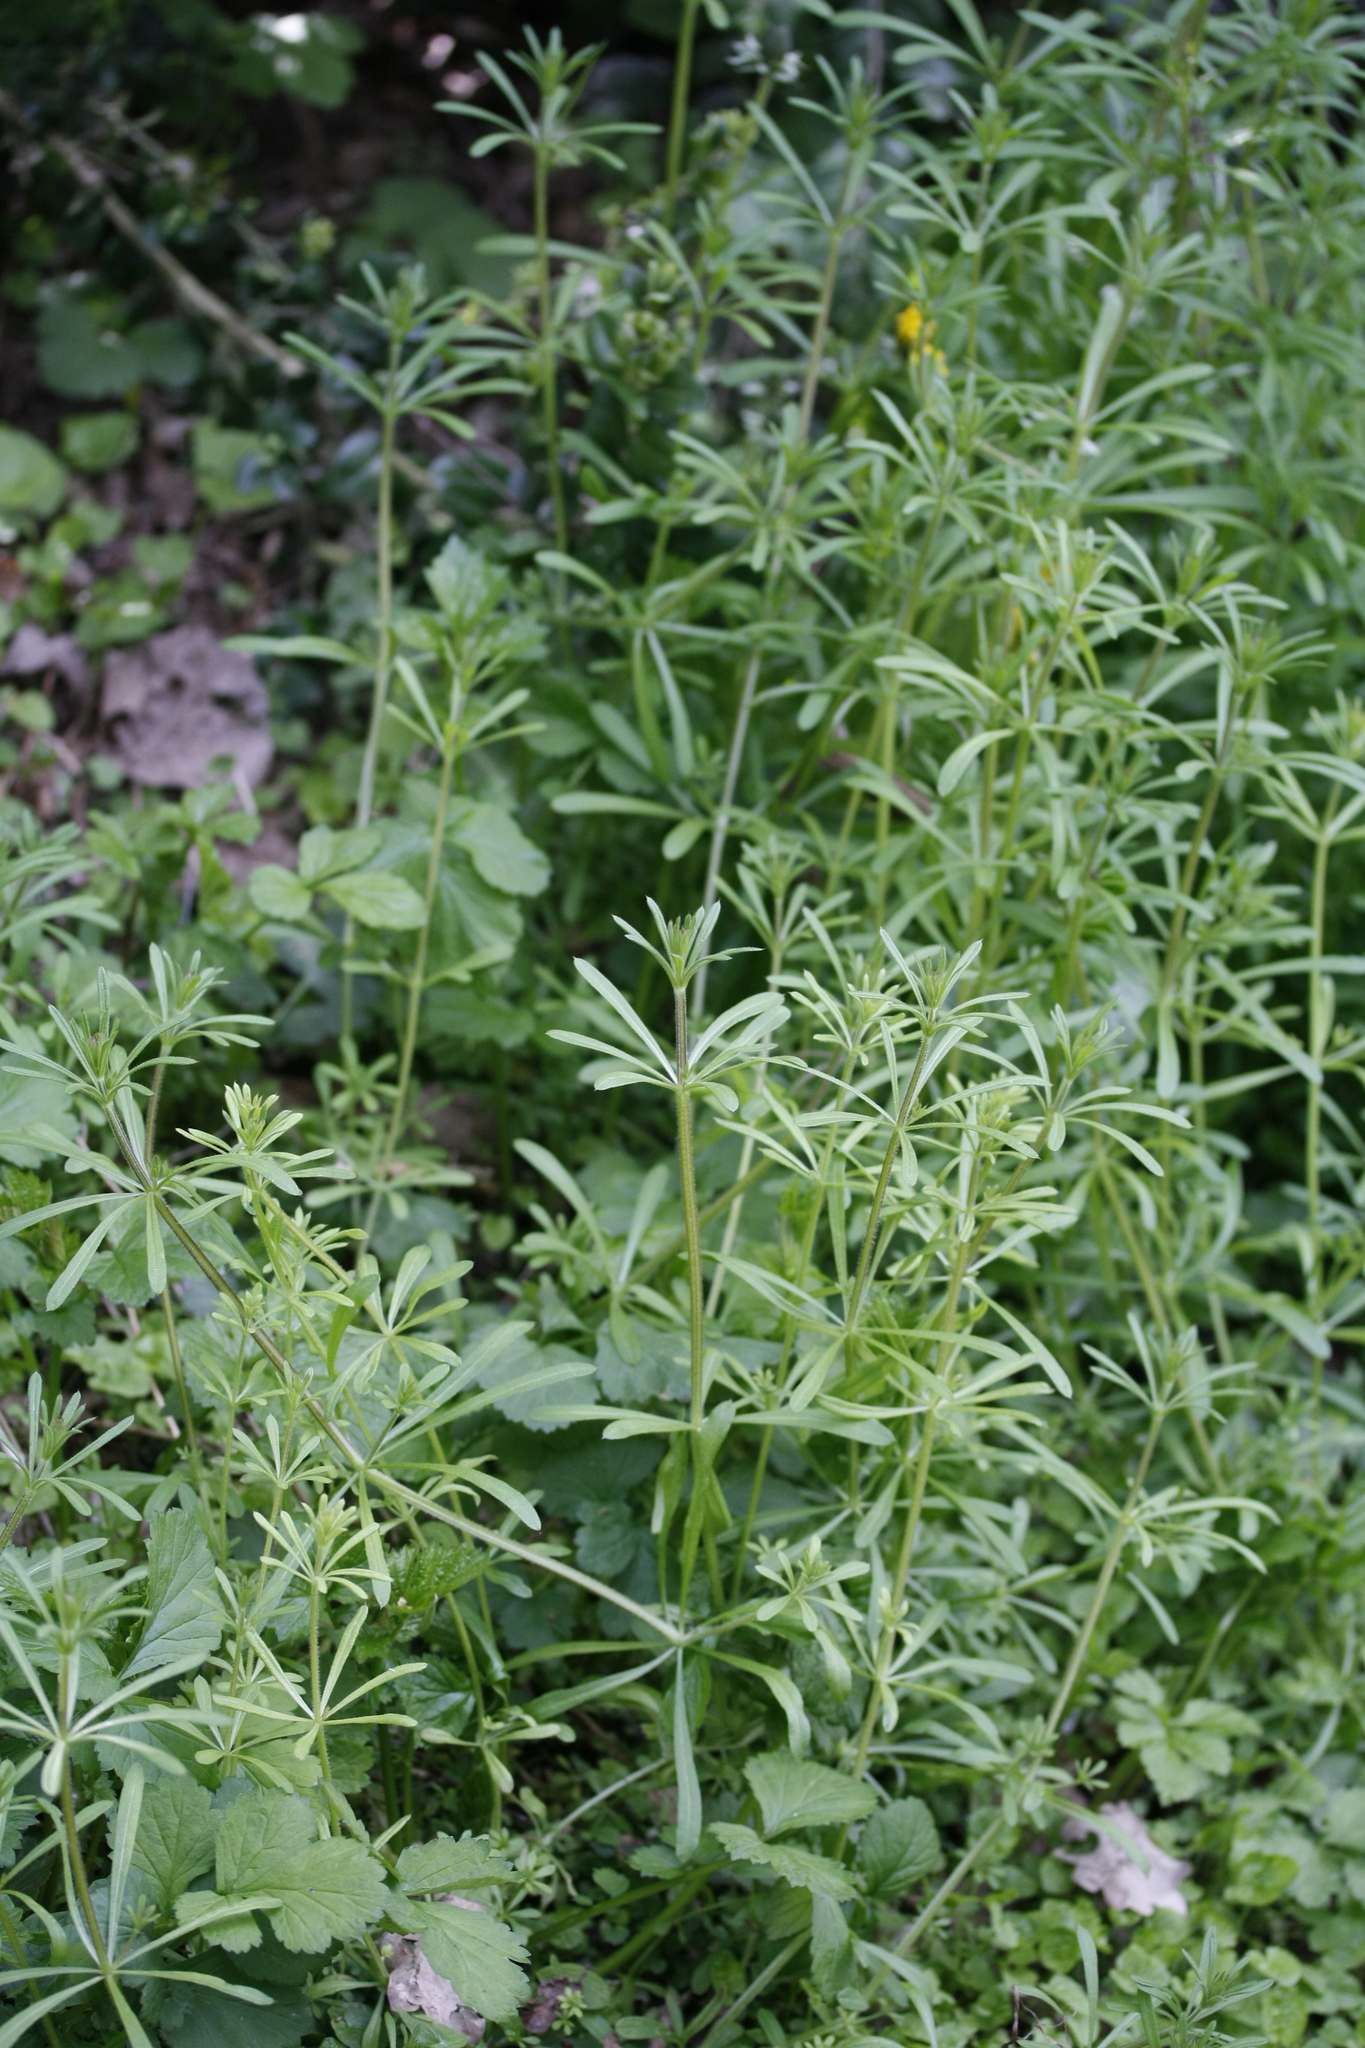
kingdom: Plantae
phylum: Tracheophyta
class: Magnoliopsida
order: Gentianales
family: Rubiaceae
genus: Galium
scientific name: Galium aparine
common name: Cleavers
